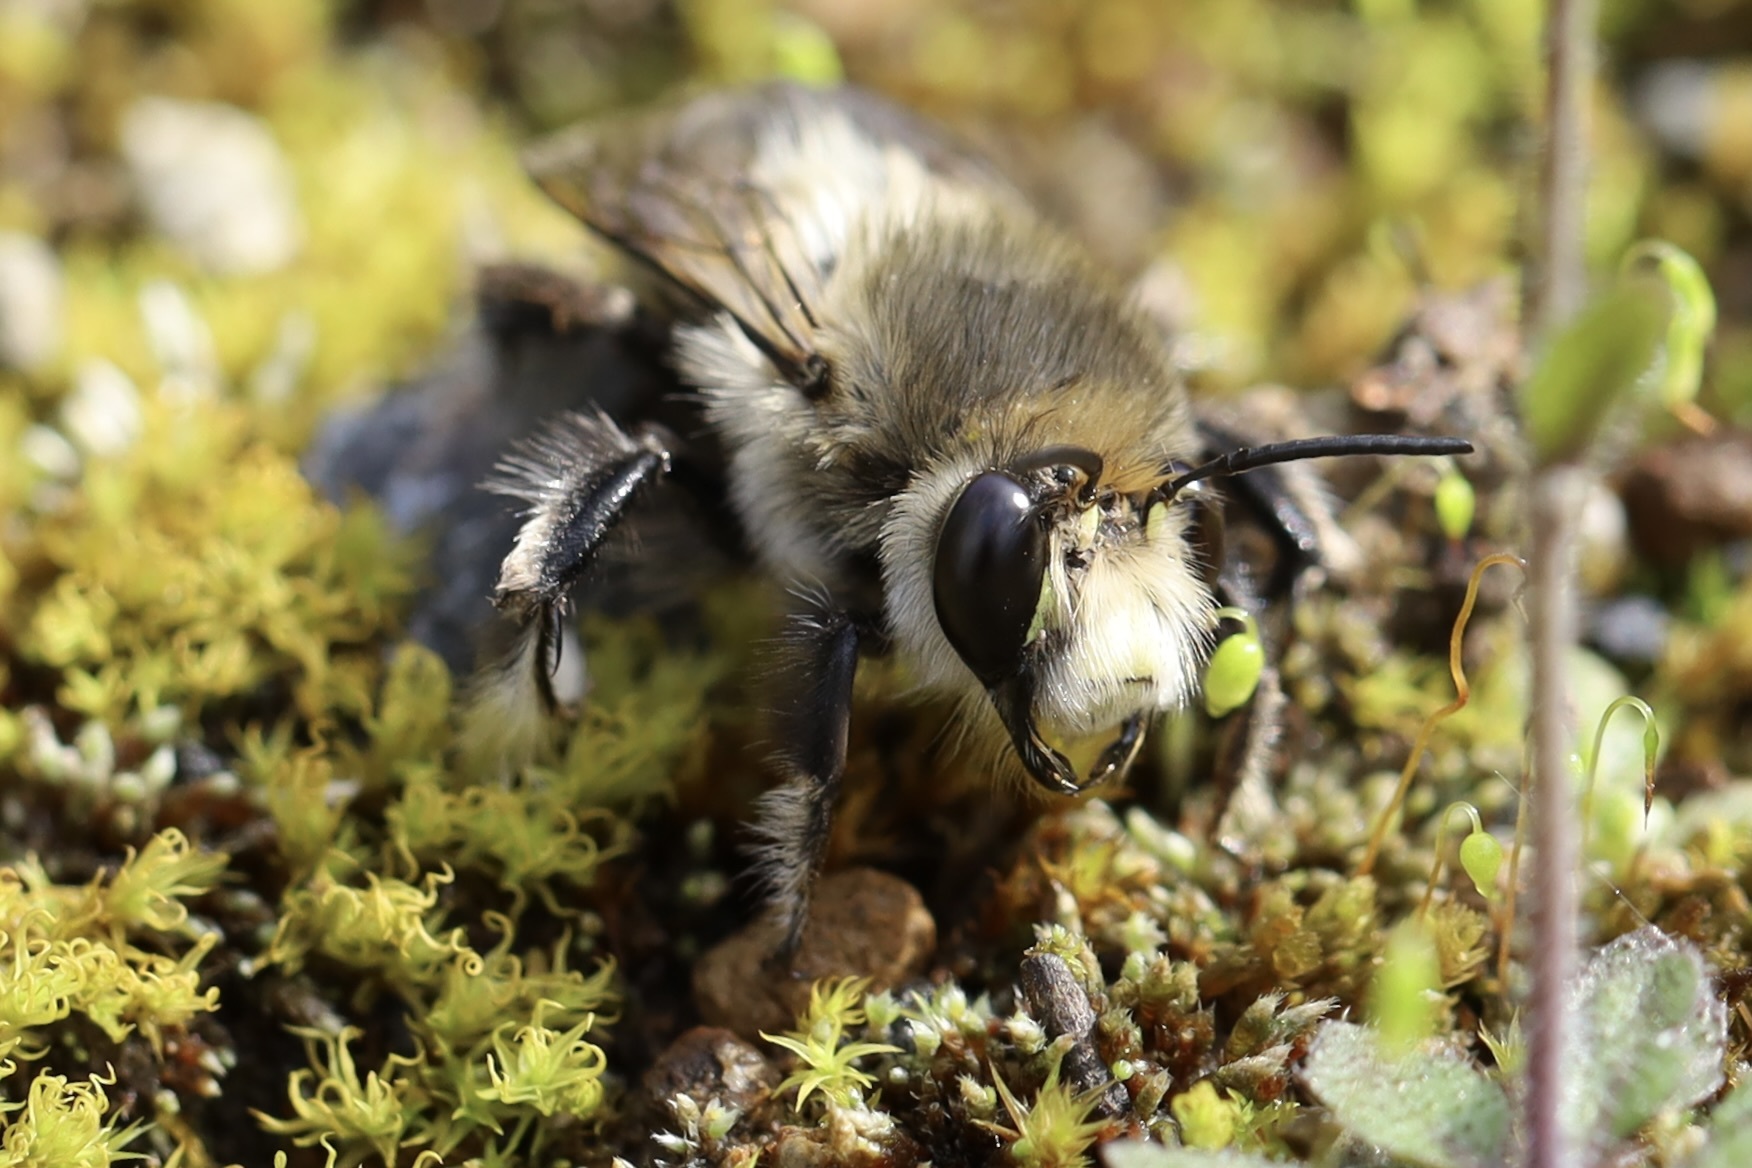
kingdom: Animalia
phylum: Arthropoda
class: Insecta
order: Hymenoptera
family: Apidae
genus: Anthophora
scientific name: Anthophora pacifica
